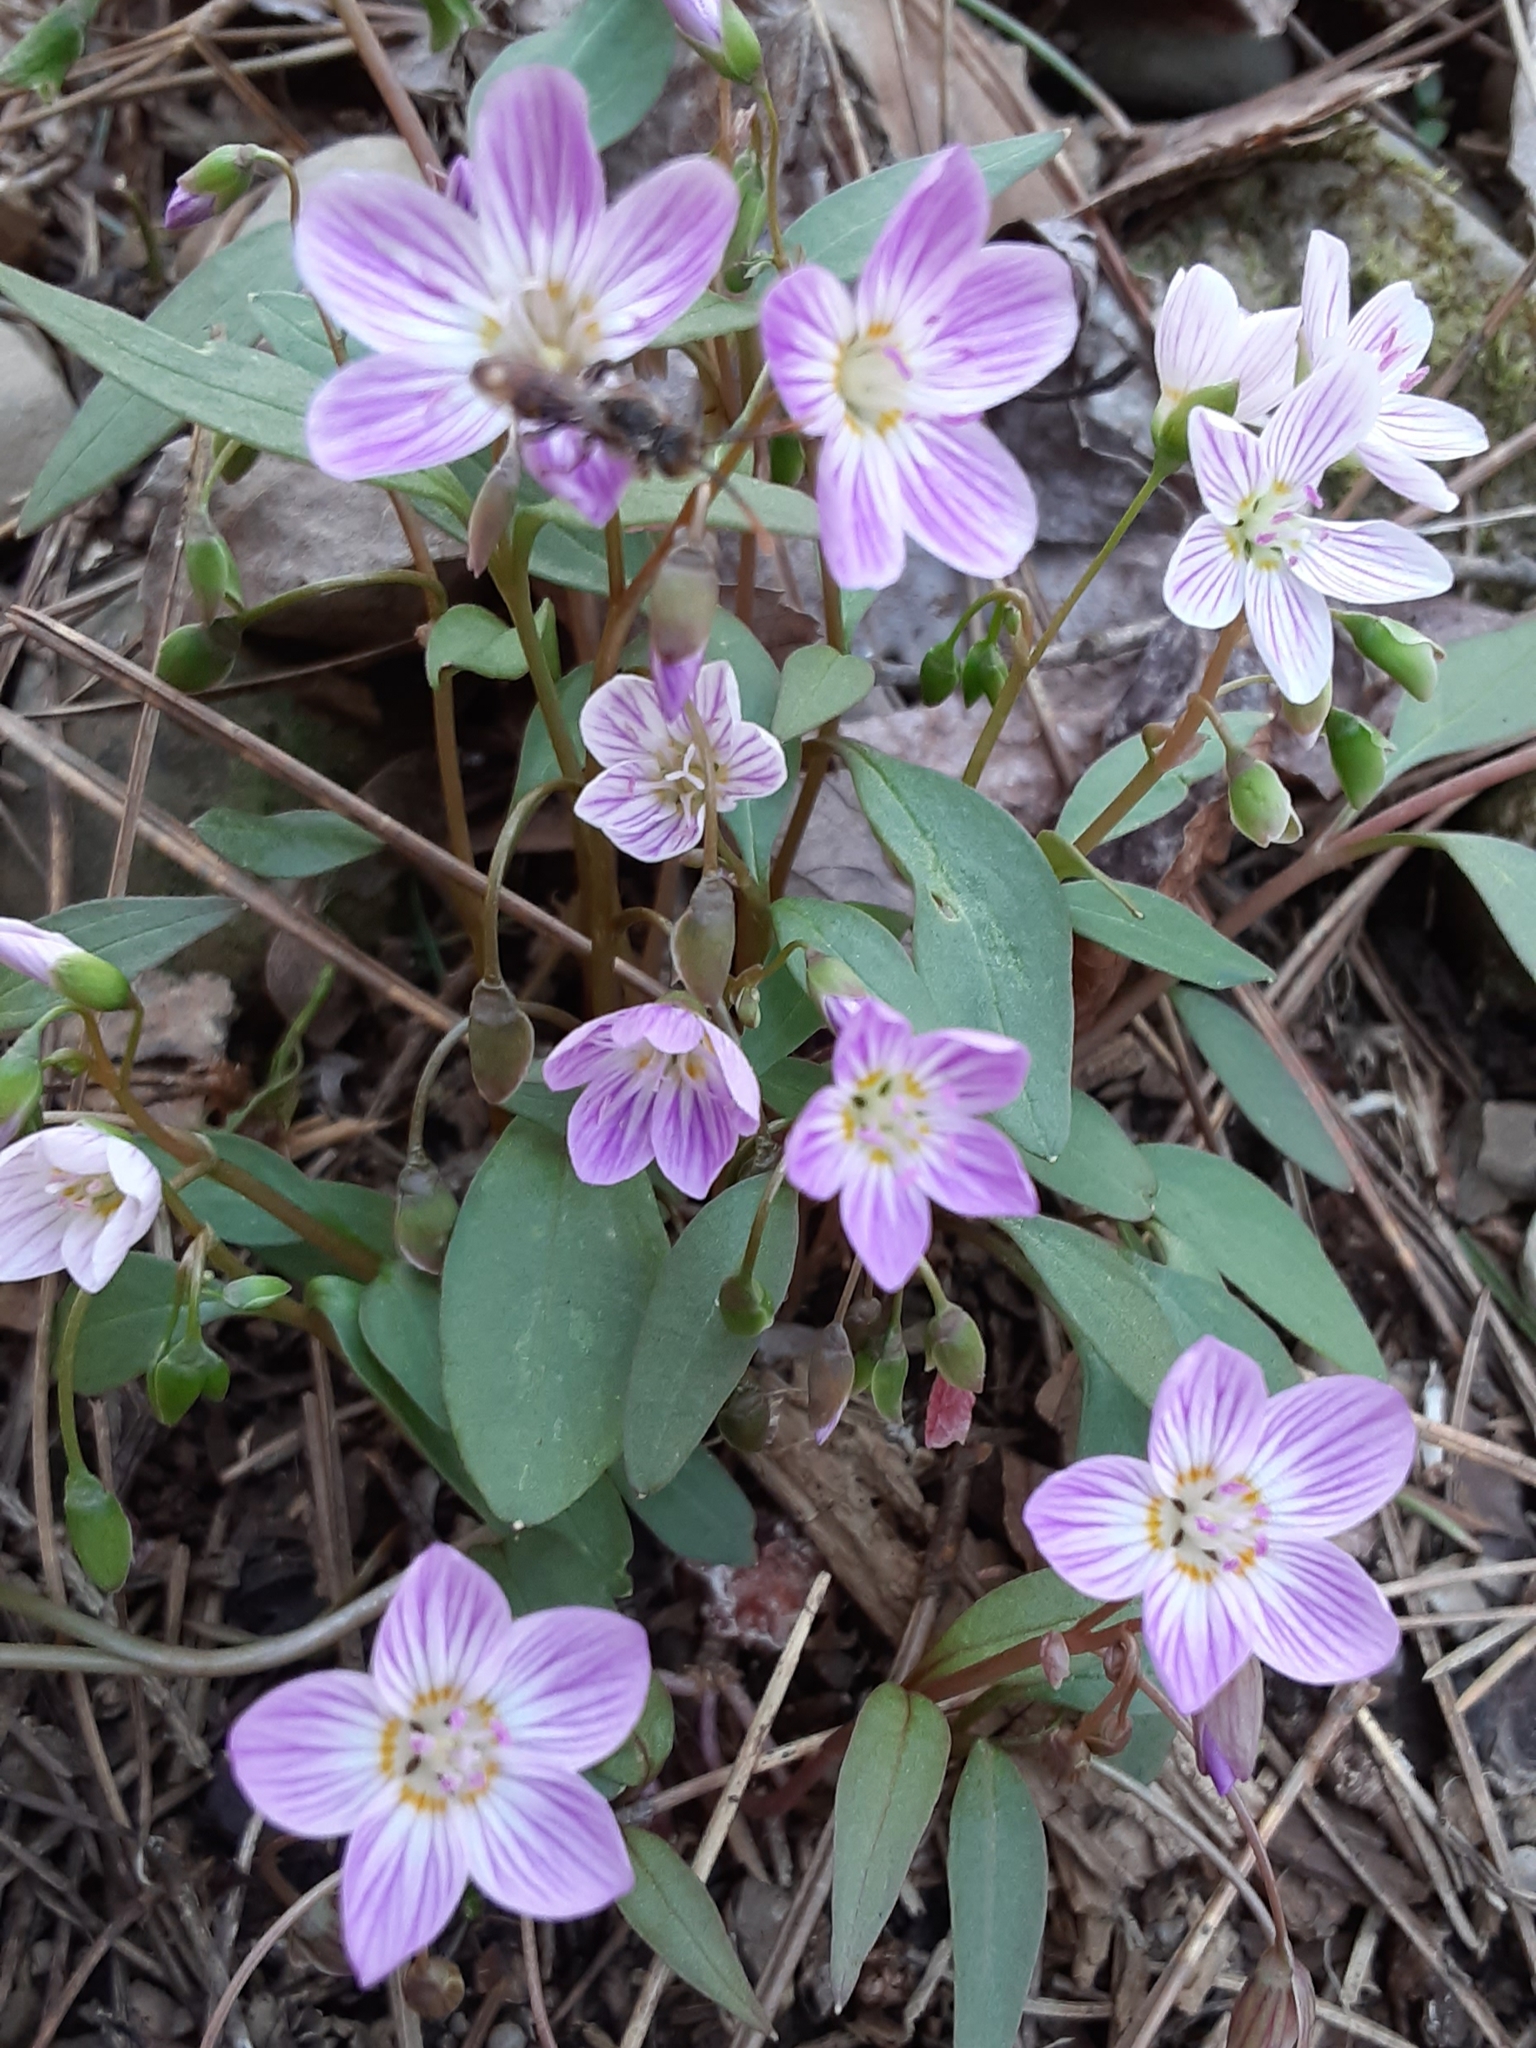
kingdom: Plantae
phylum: Tracheophyta
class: Magnoliopsida
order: Caryophyllales
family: Montiaceae
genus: Claytonia
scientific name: Claytonia caroliniana
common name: Carolina spring beauty
